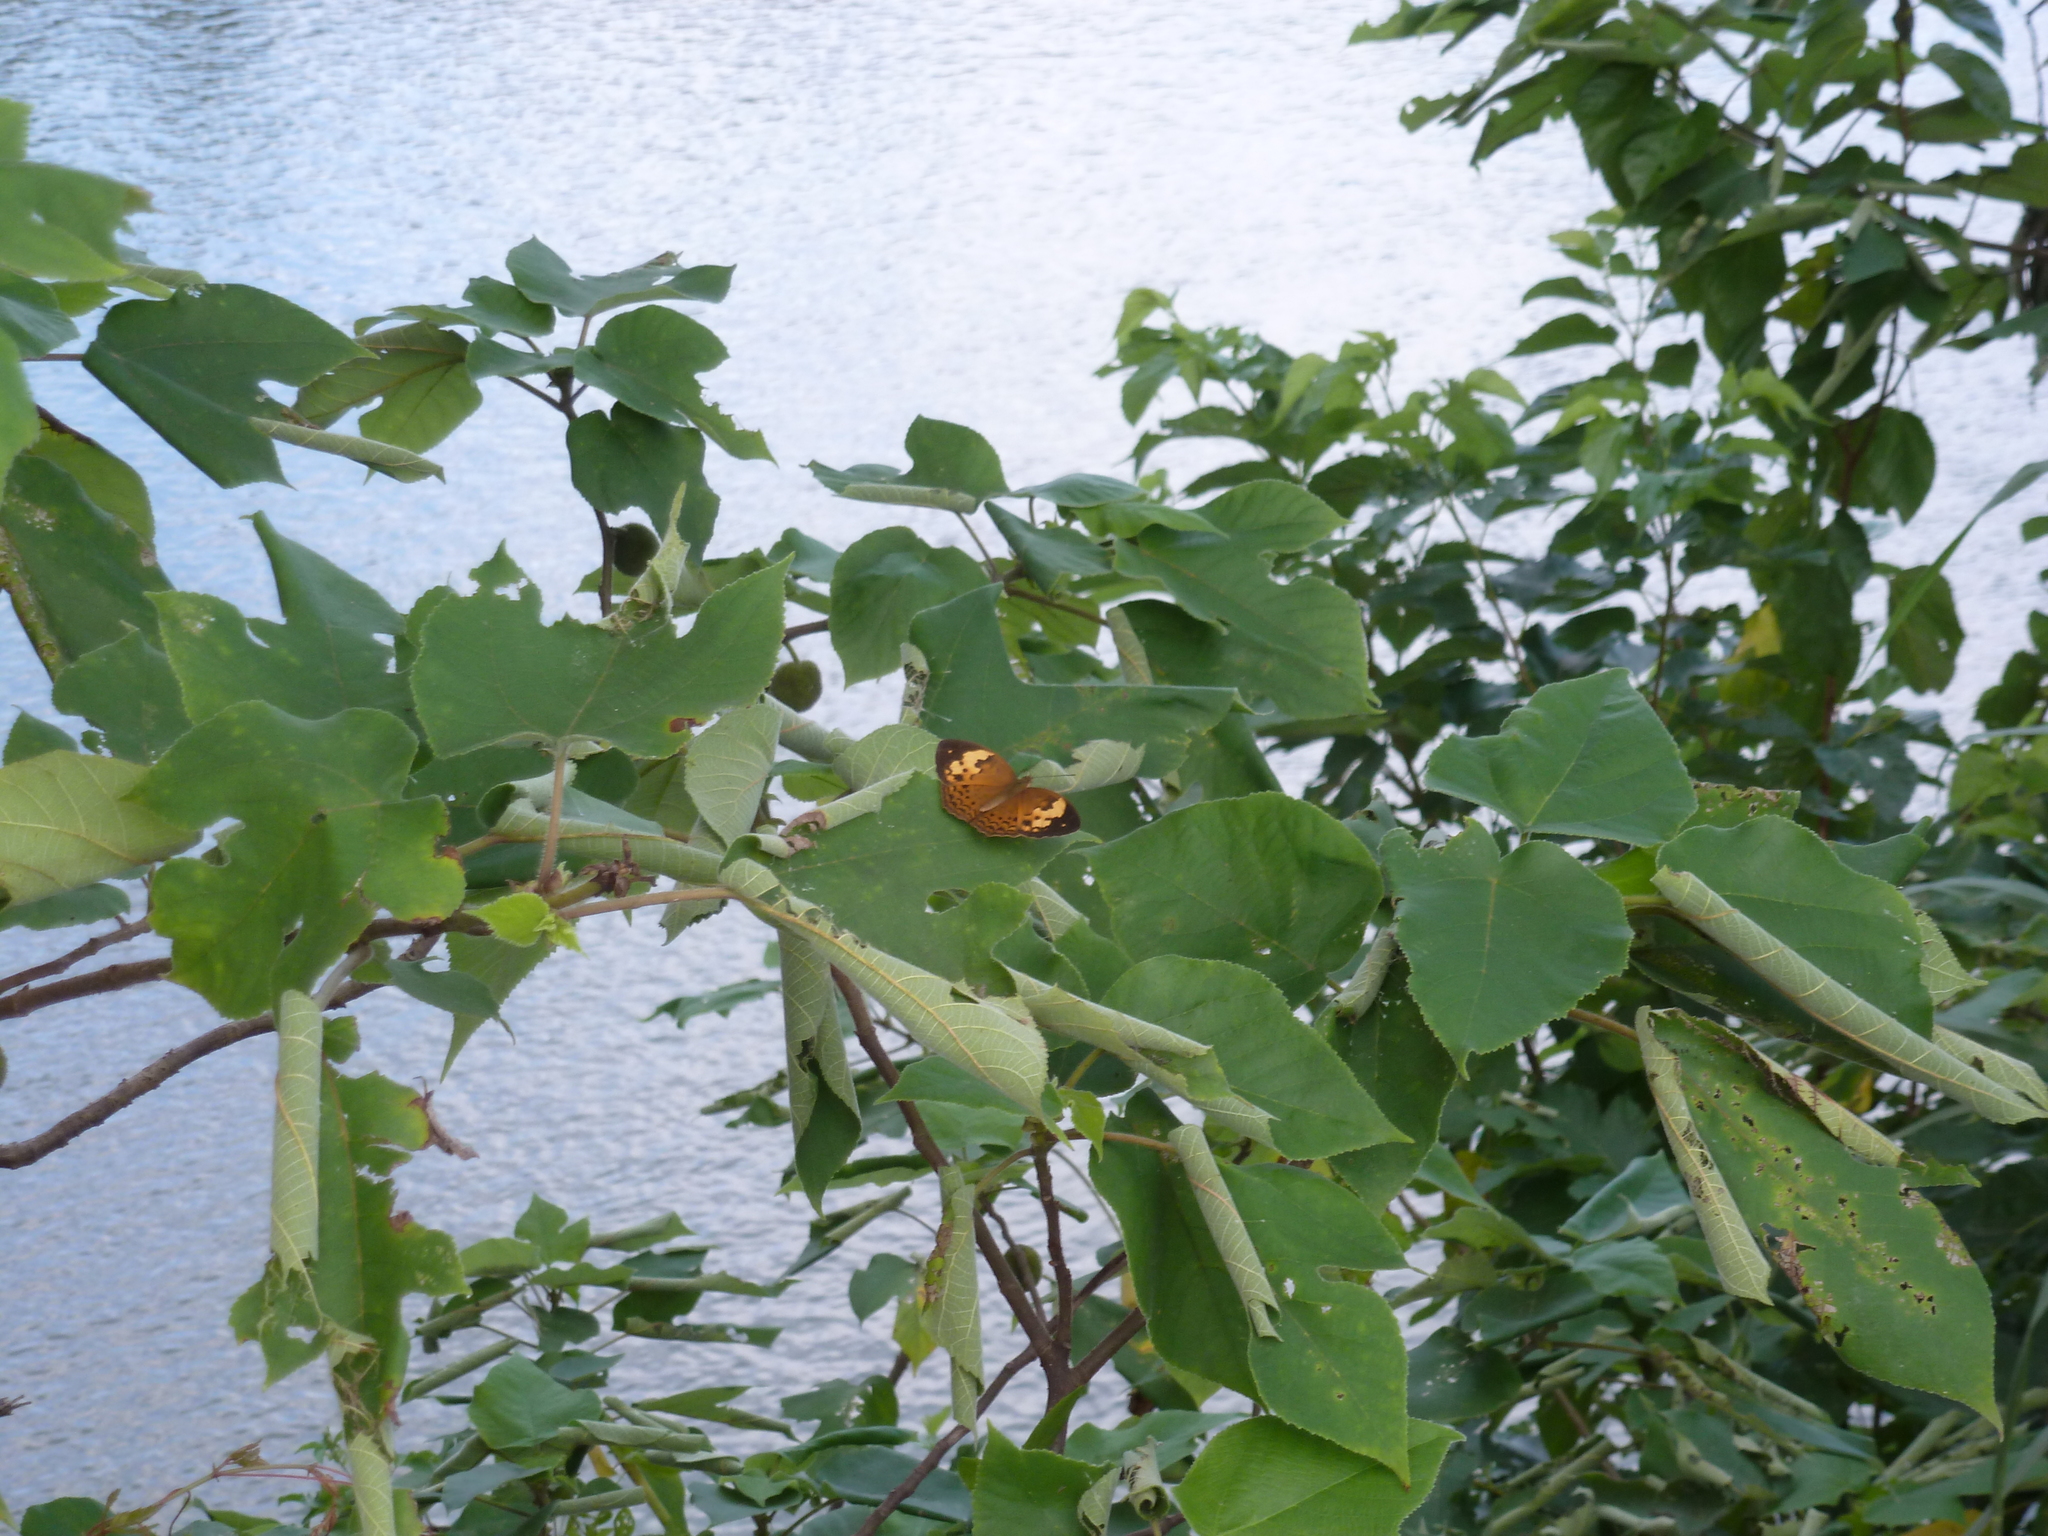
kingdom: Animalia
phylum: Arthropoda
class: Insecta
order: Lepidoptera
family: Nymphalidae
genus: Cupha
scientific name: Cupha erymanthis
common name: Rustic
